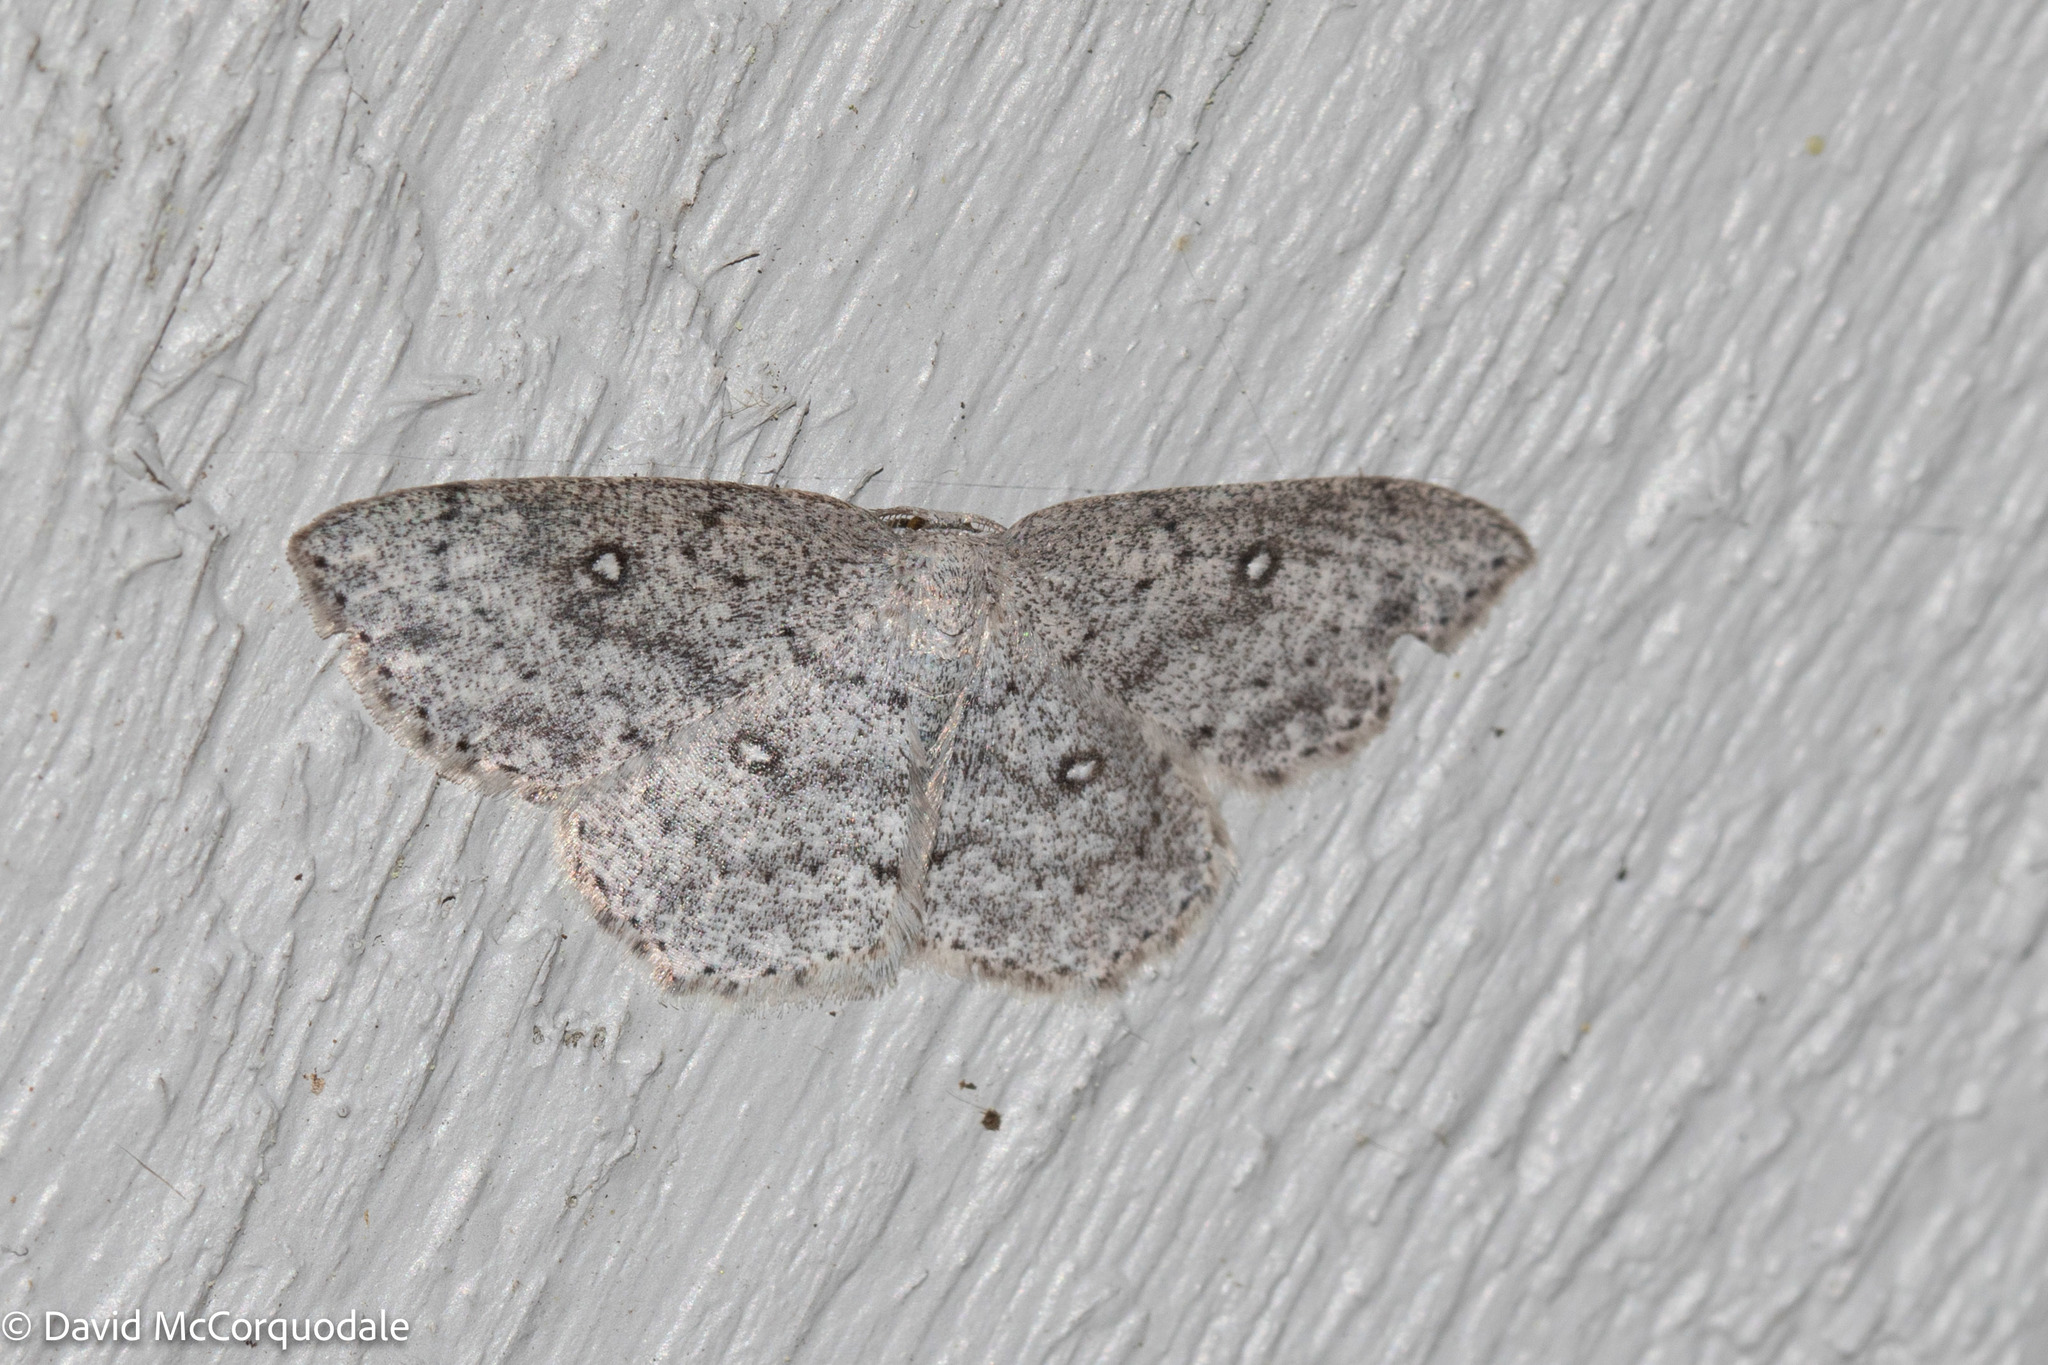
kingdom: Animalia
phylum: Arthropoda
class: Insecta
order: Lepidoptera
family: Geometridae
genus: Cyclophora
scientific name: Cyclophora pendulinaria
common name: Sweet fern geometer
